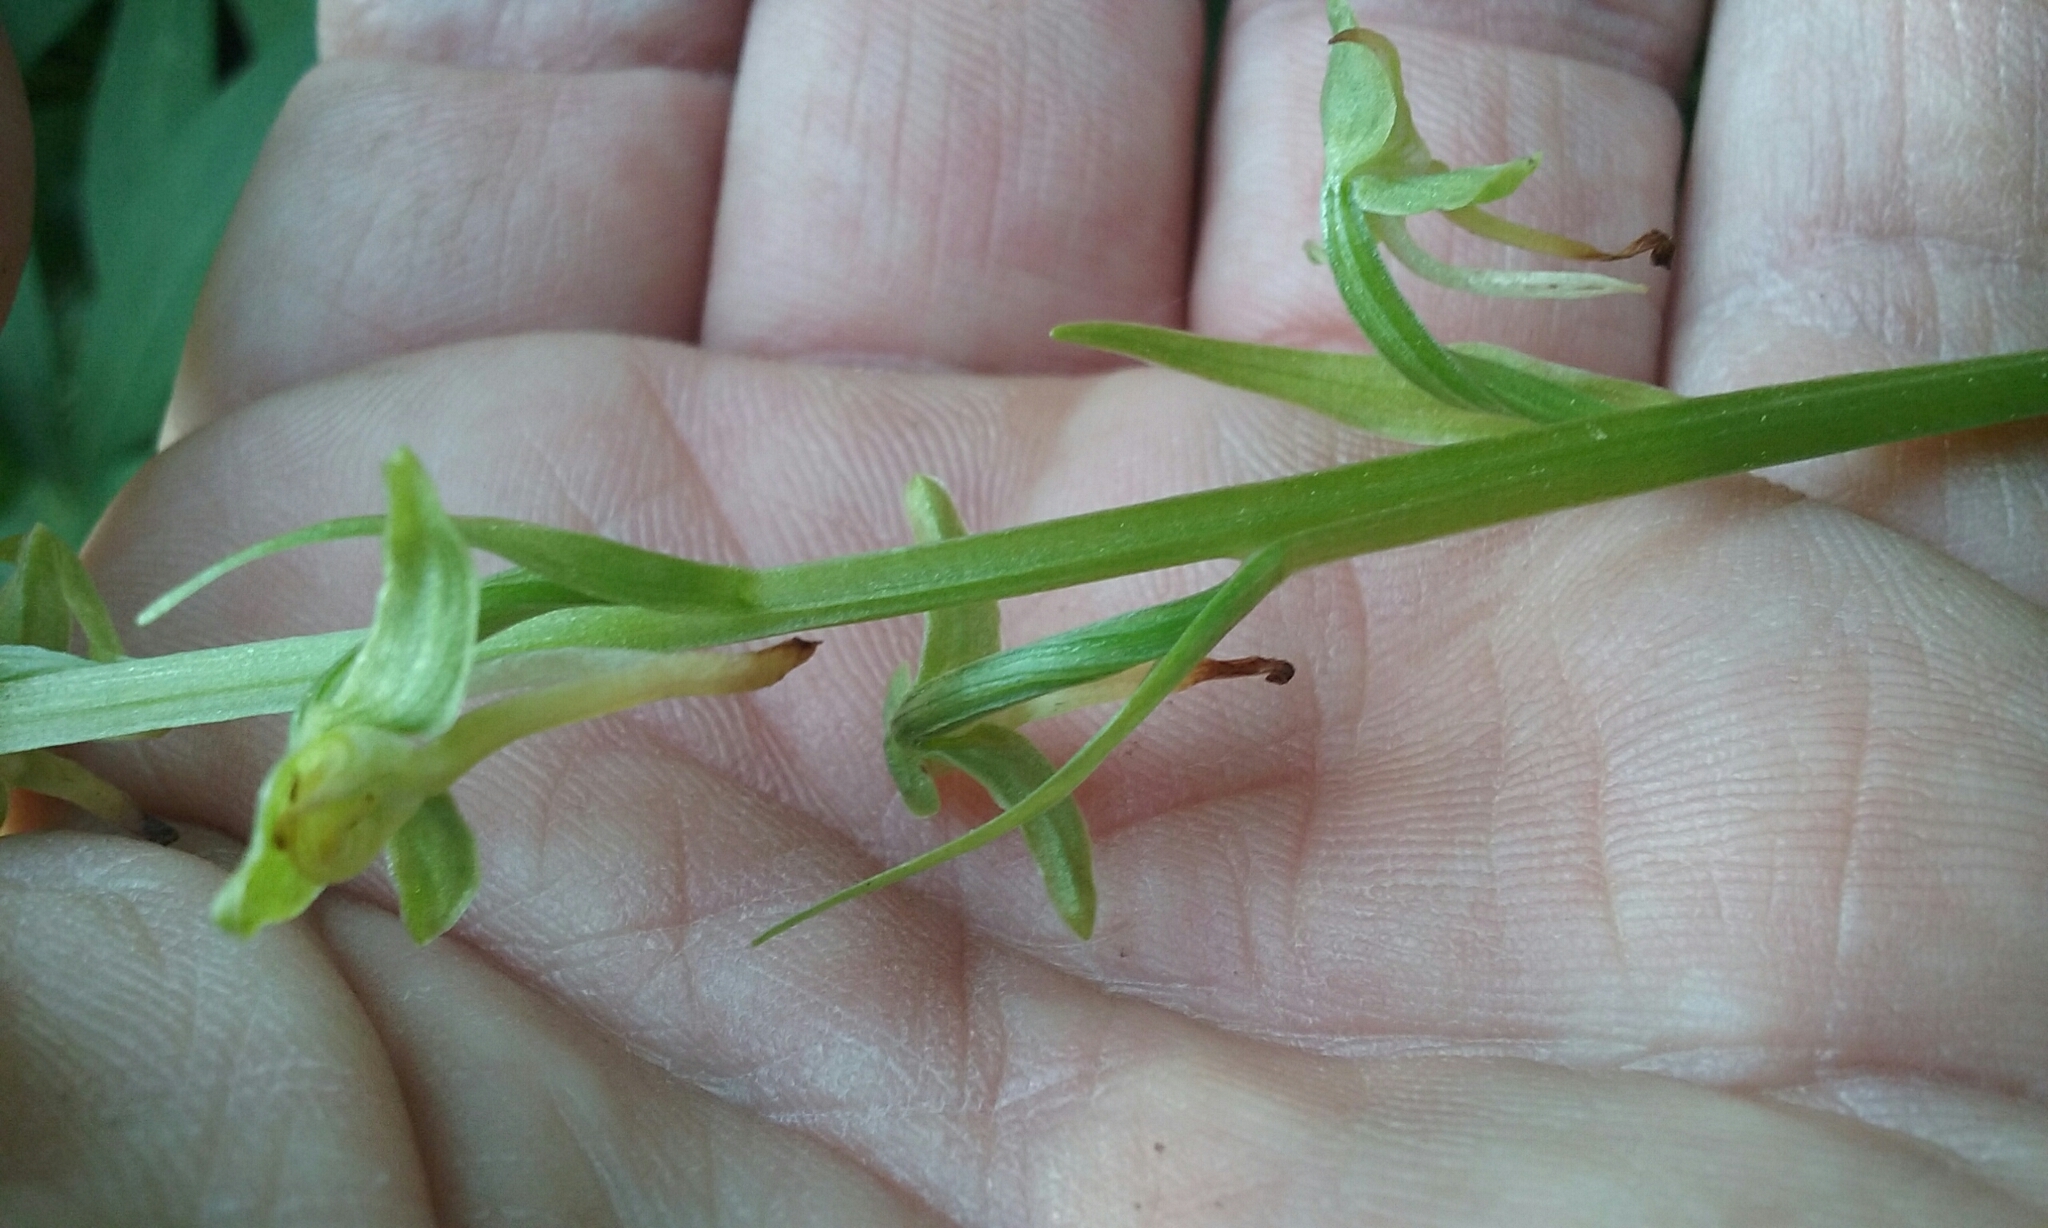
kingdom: Plantae
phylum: Tracheophyta
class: Liliopsida
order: Asparagales
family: Orchidaceae
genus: Platanthera
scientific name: Platanthera sparsiflora
